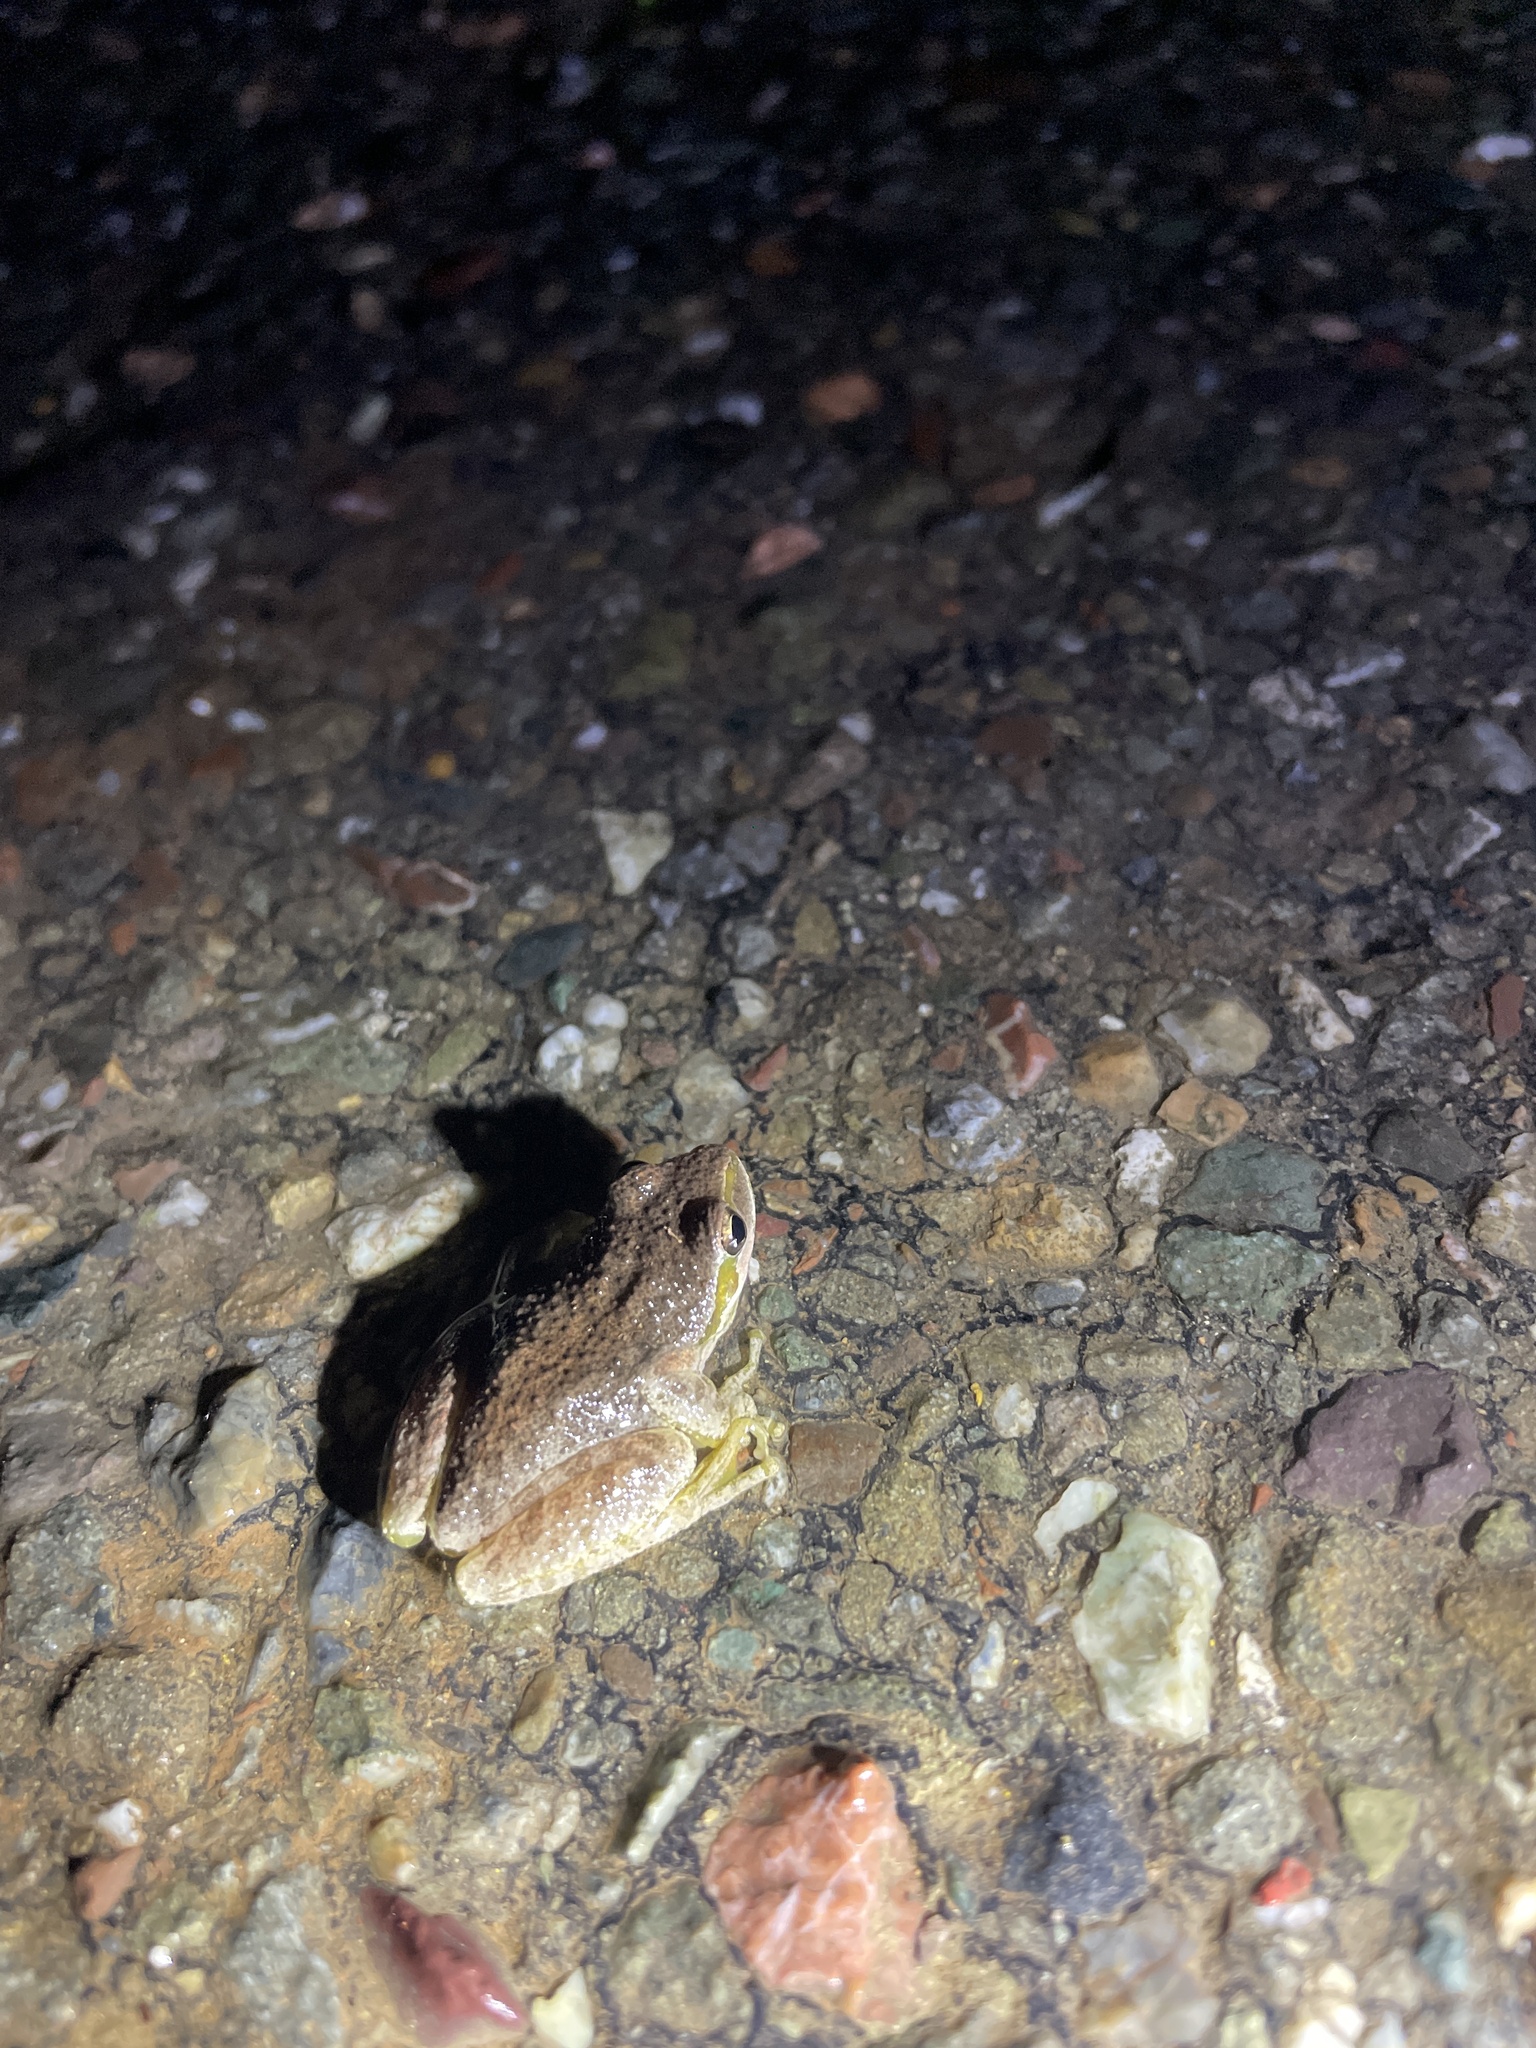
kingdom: Animalia
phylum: Chordata
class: Amphibia
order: Anura
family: Hylidae
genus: Pseudacris
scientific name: Pseudacris regilla
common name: Pacific chorus frog
